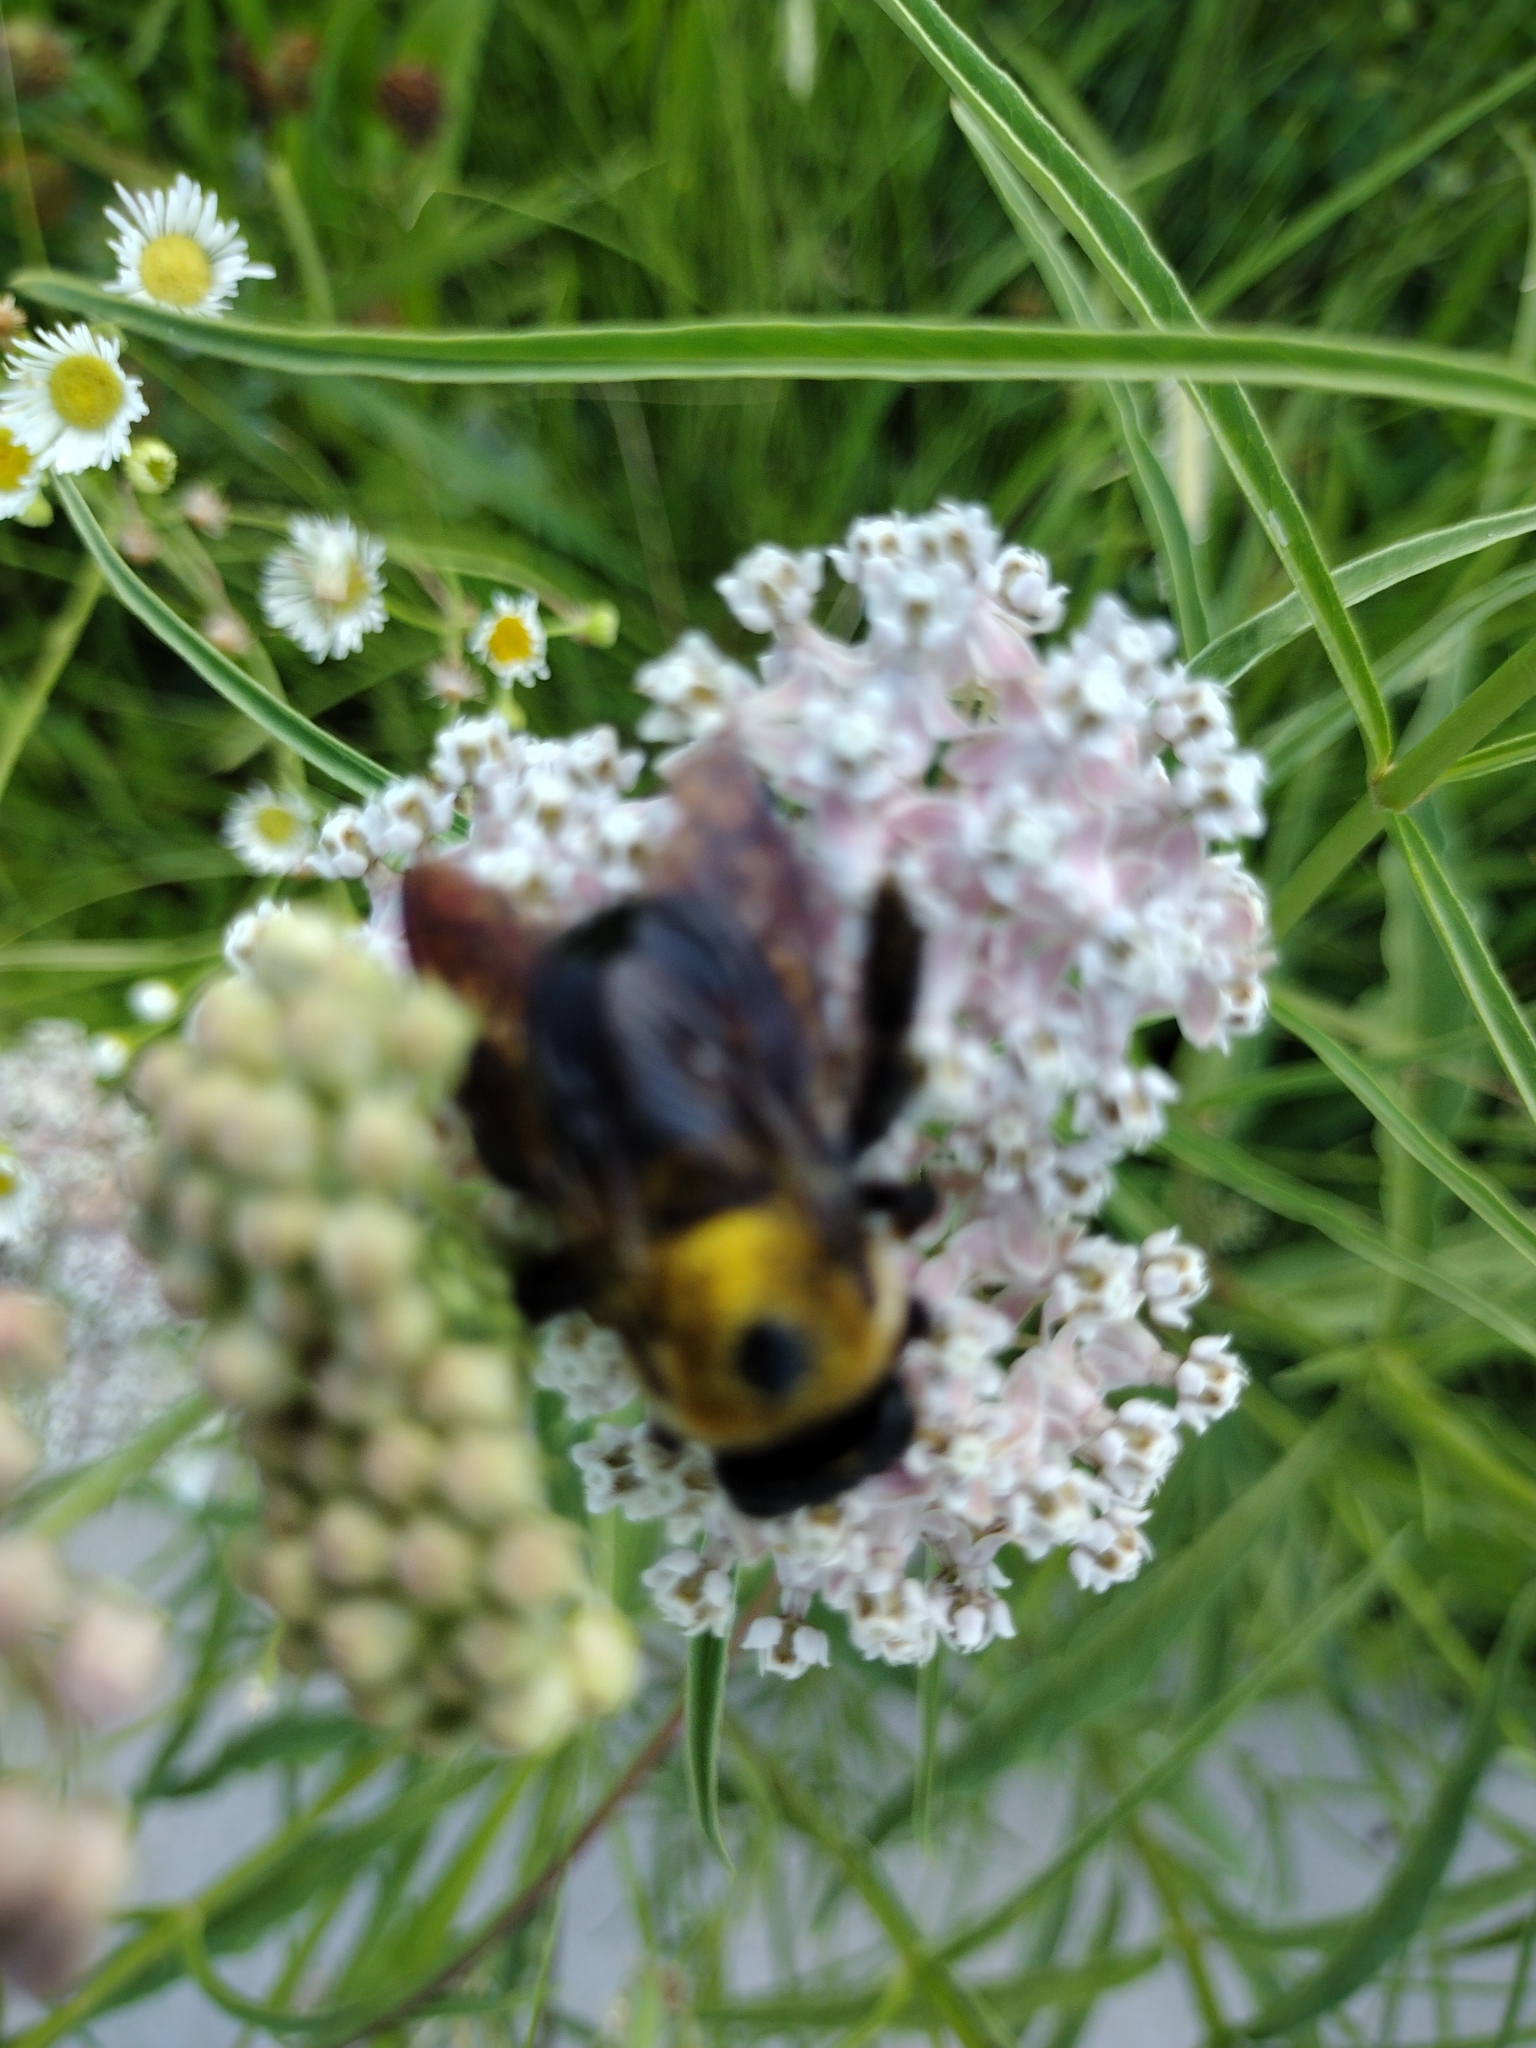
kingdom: Animalia
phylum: Arthropoda
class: Insecta
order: Hymenoptera
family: Apidae
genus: Xylocopa
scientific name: Xylocopa virginica
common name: Carpenter bee
